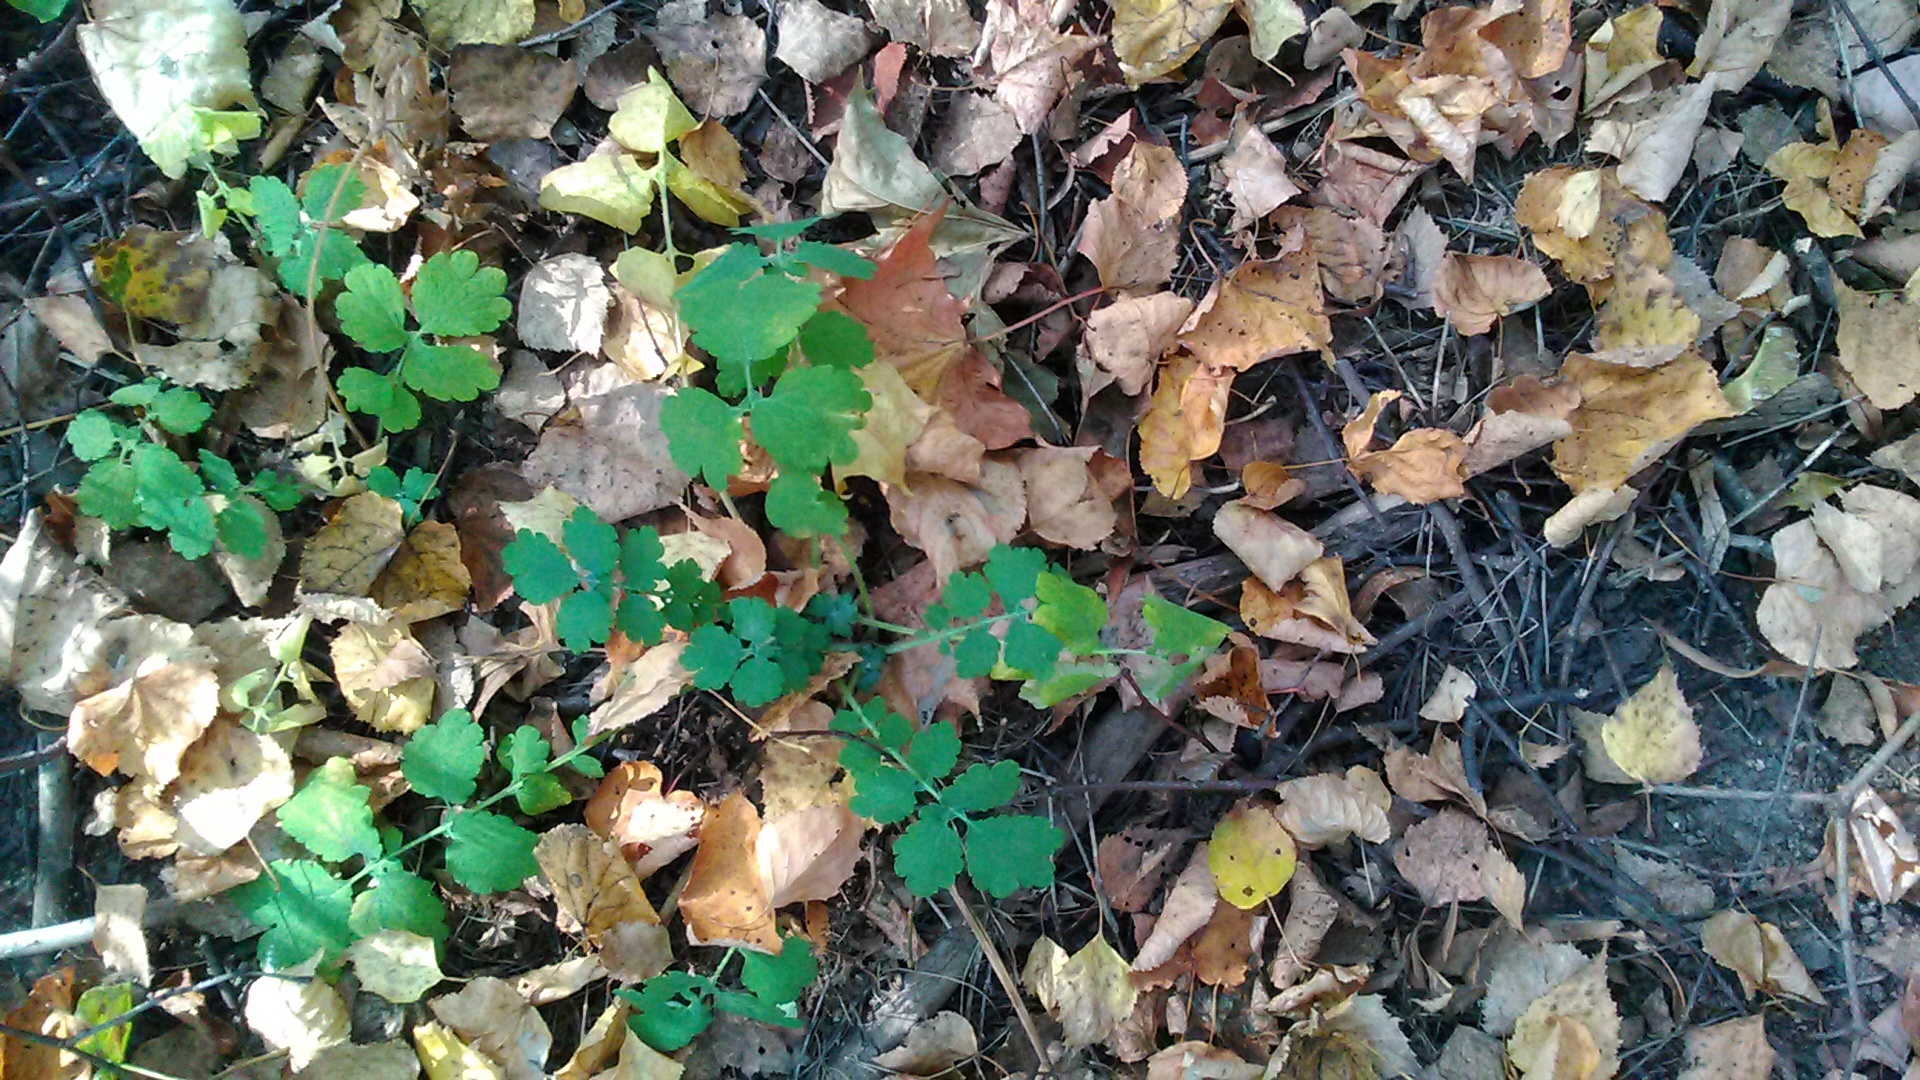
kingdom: Plantae
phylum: Tracheophyta
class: Magnoliopsida
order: Ranunculales
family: Papaveraceae
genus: Chelidonium
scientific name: Chelidonium majus
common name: Greater celandine
